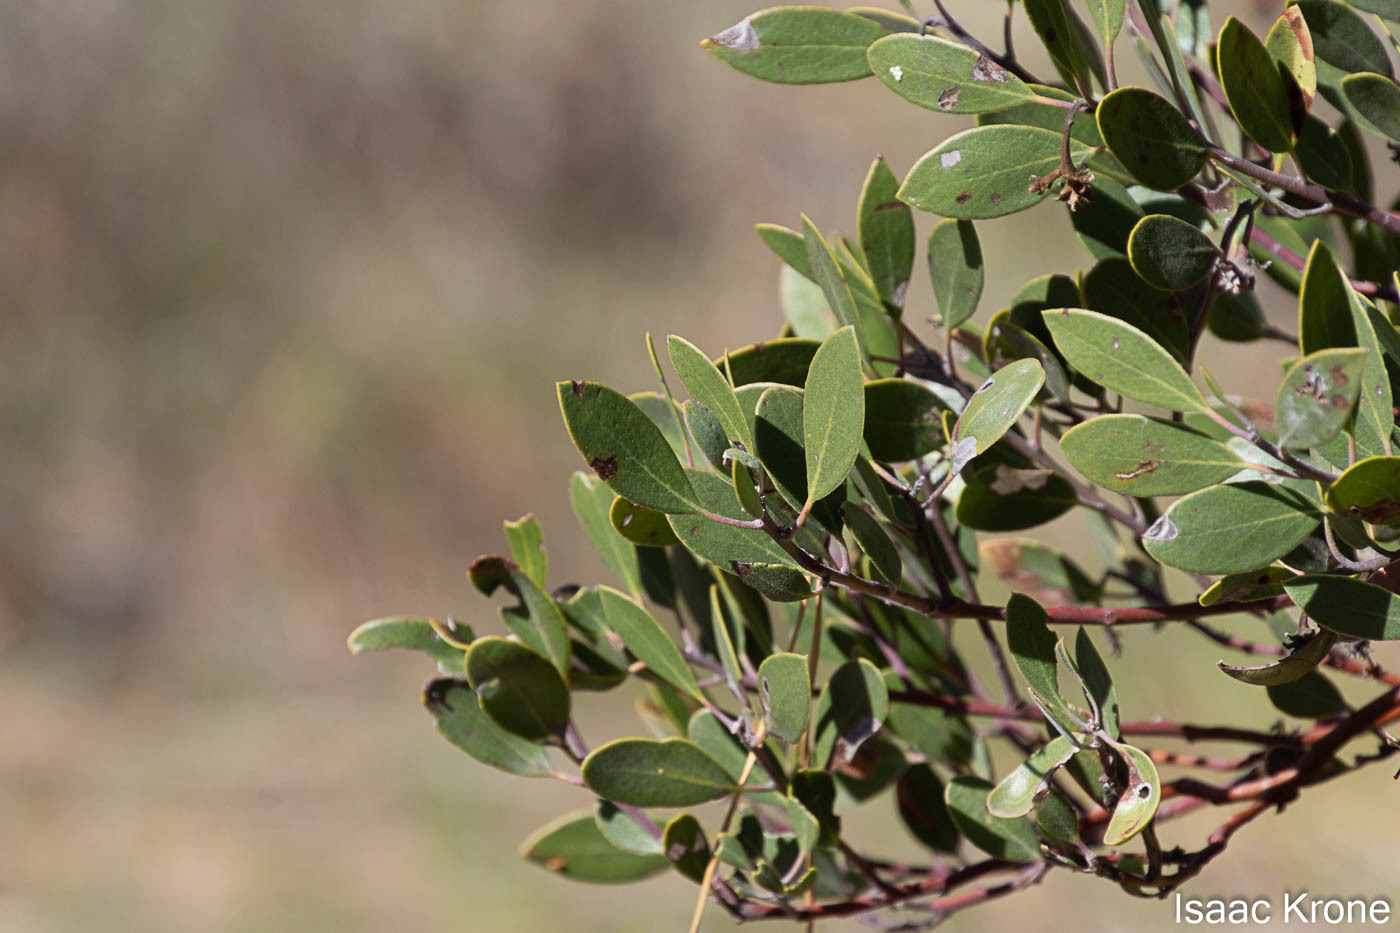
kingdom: Plantae
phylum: Tracheophyta
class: Magnoliopsida
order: Ericales
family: Ericaceae
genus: Arctostaphylos
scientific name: Arctostaphylos pungens
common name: Mexican manzanita
